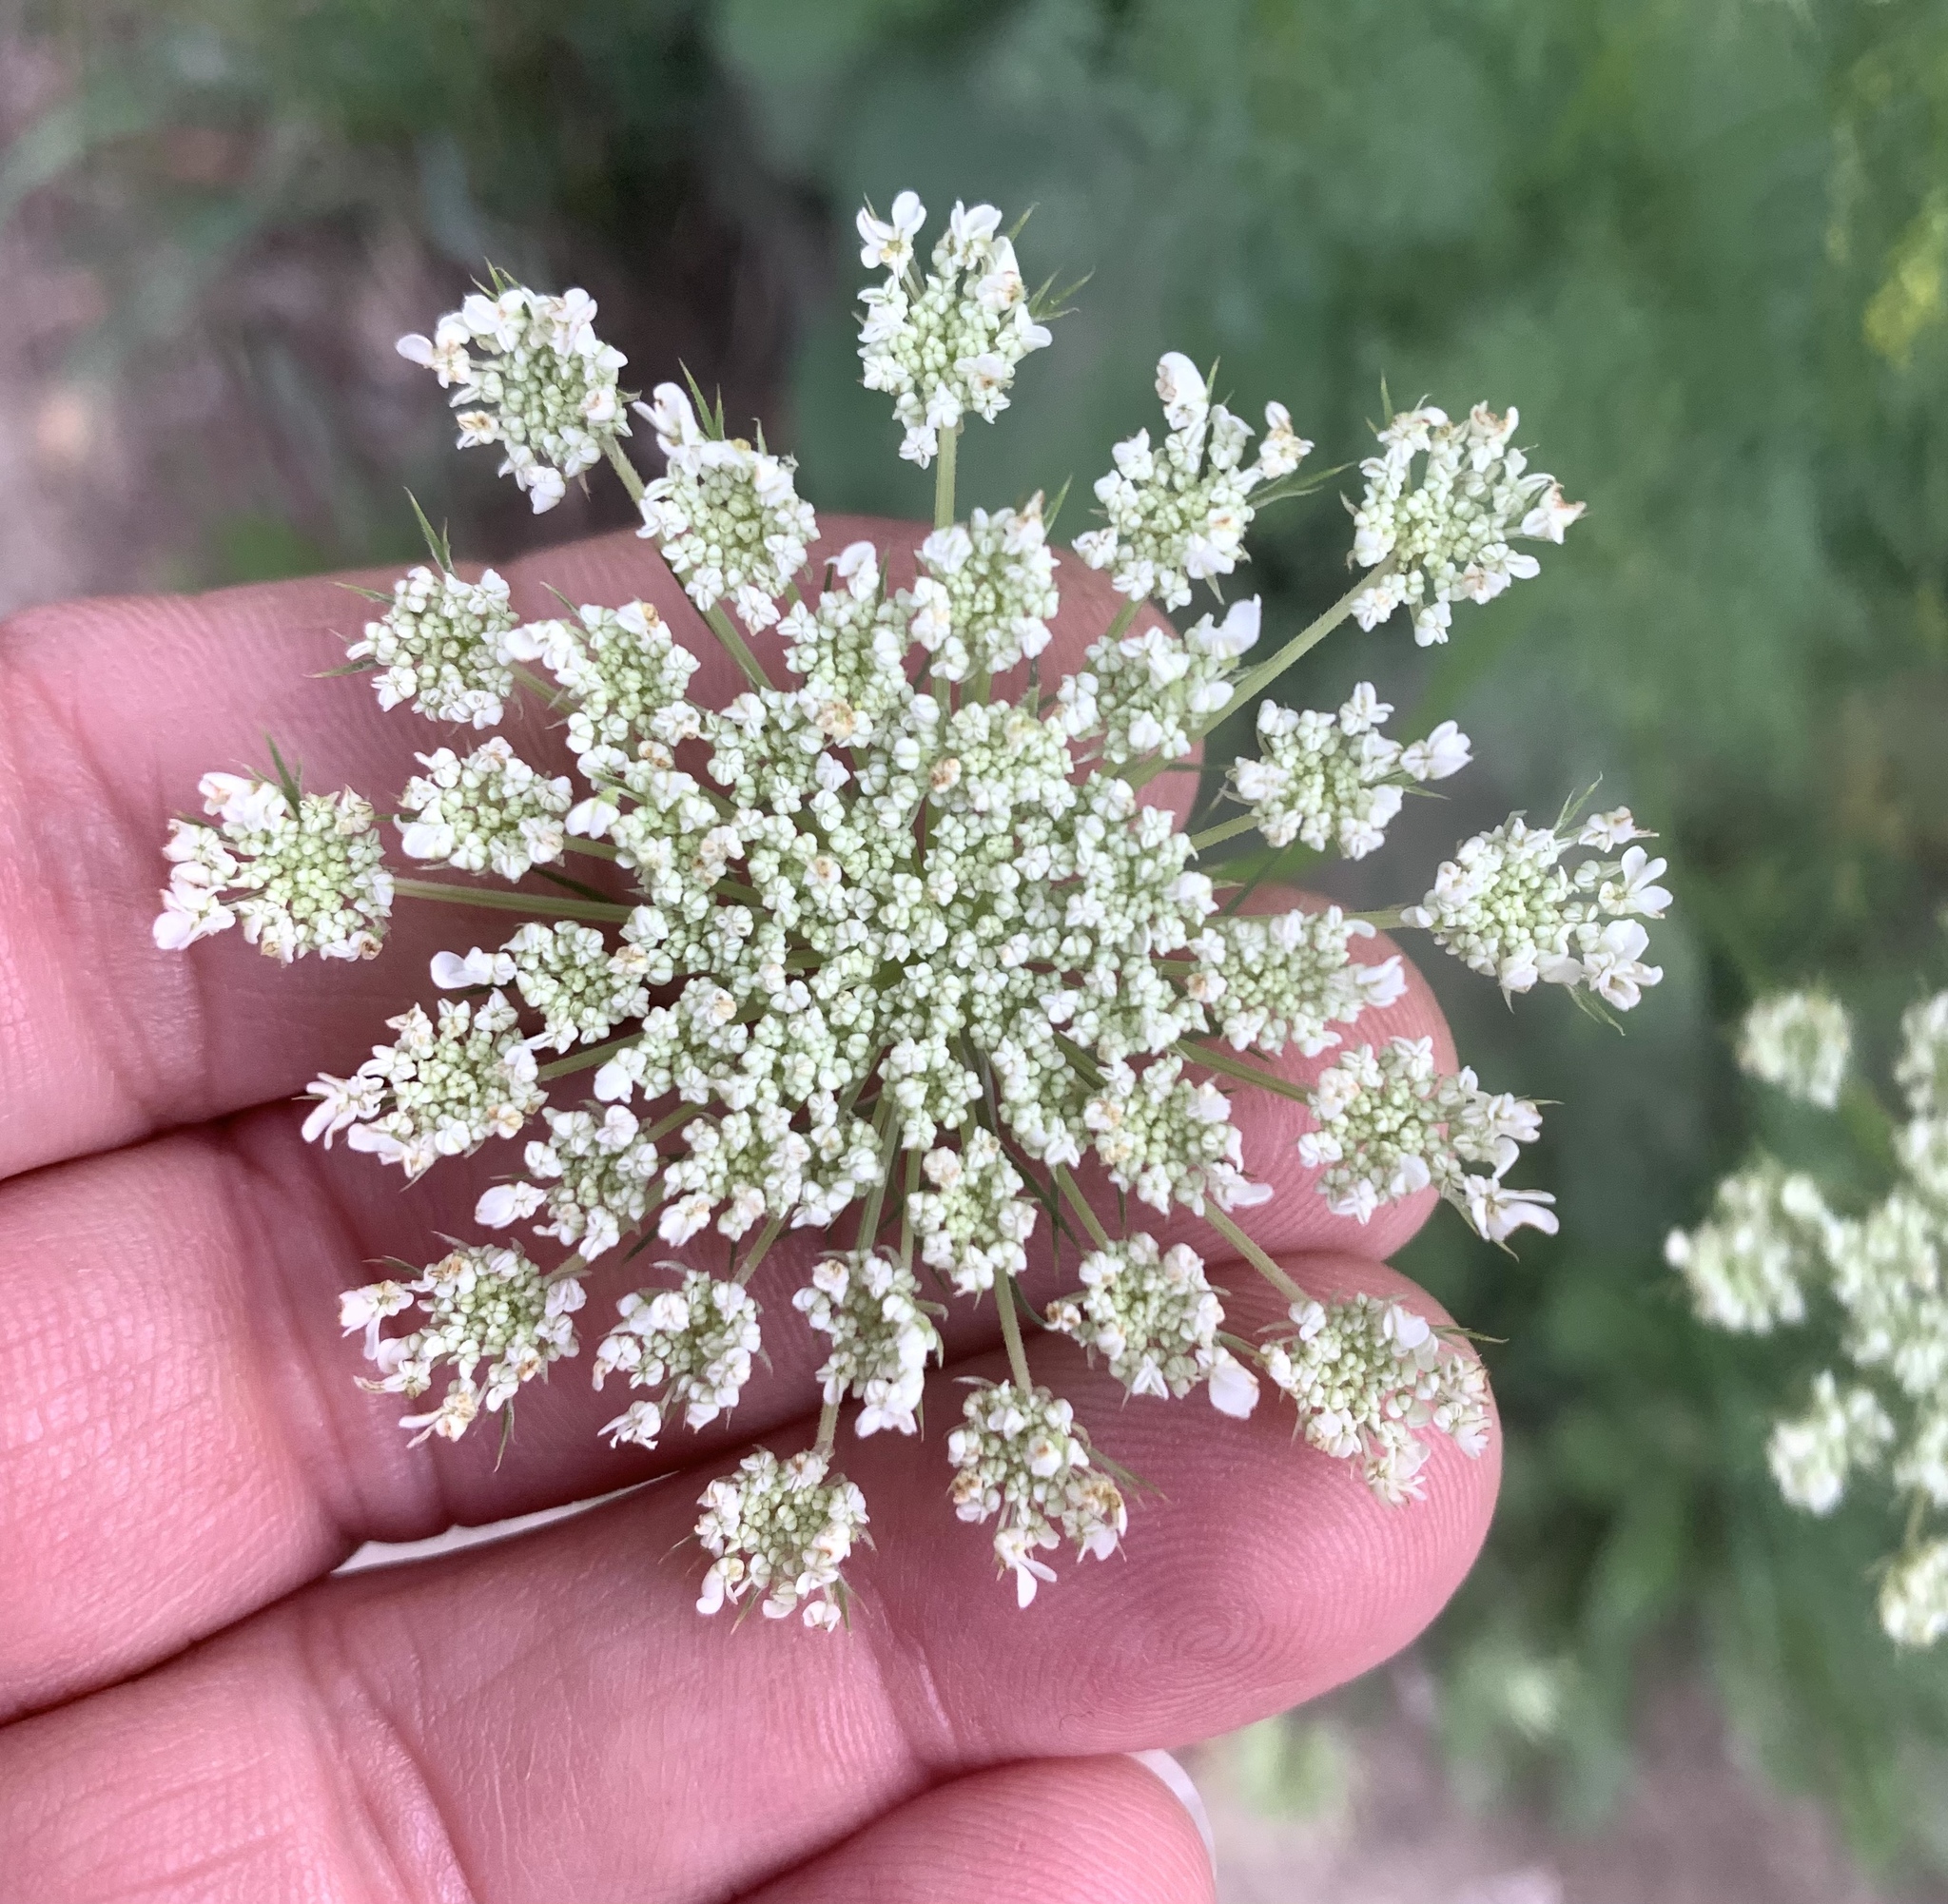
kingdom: Plantae
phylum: Tracheophyta
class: Magnoliopsida
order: Apiales
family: Apiaceae
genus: Daucus
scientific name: Daucus carota
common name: Wild carrot
